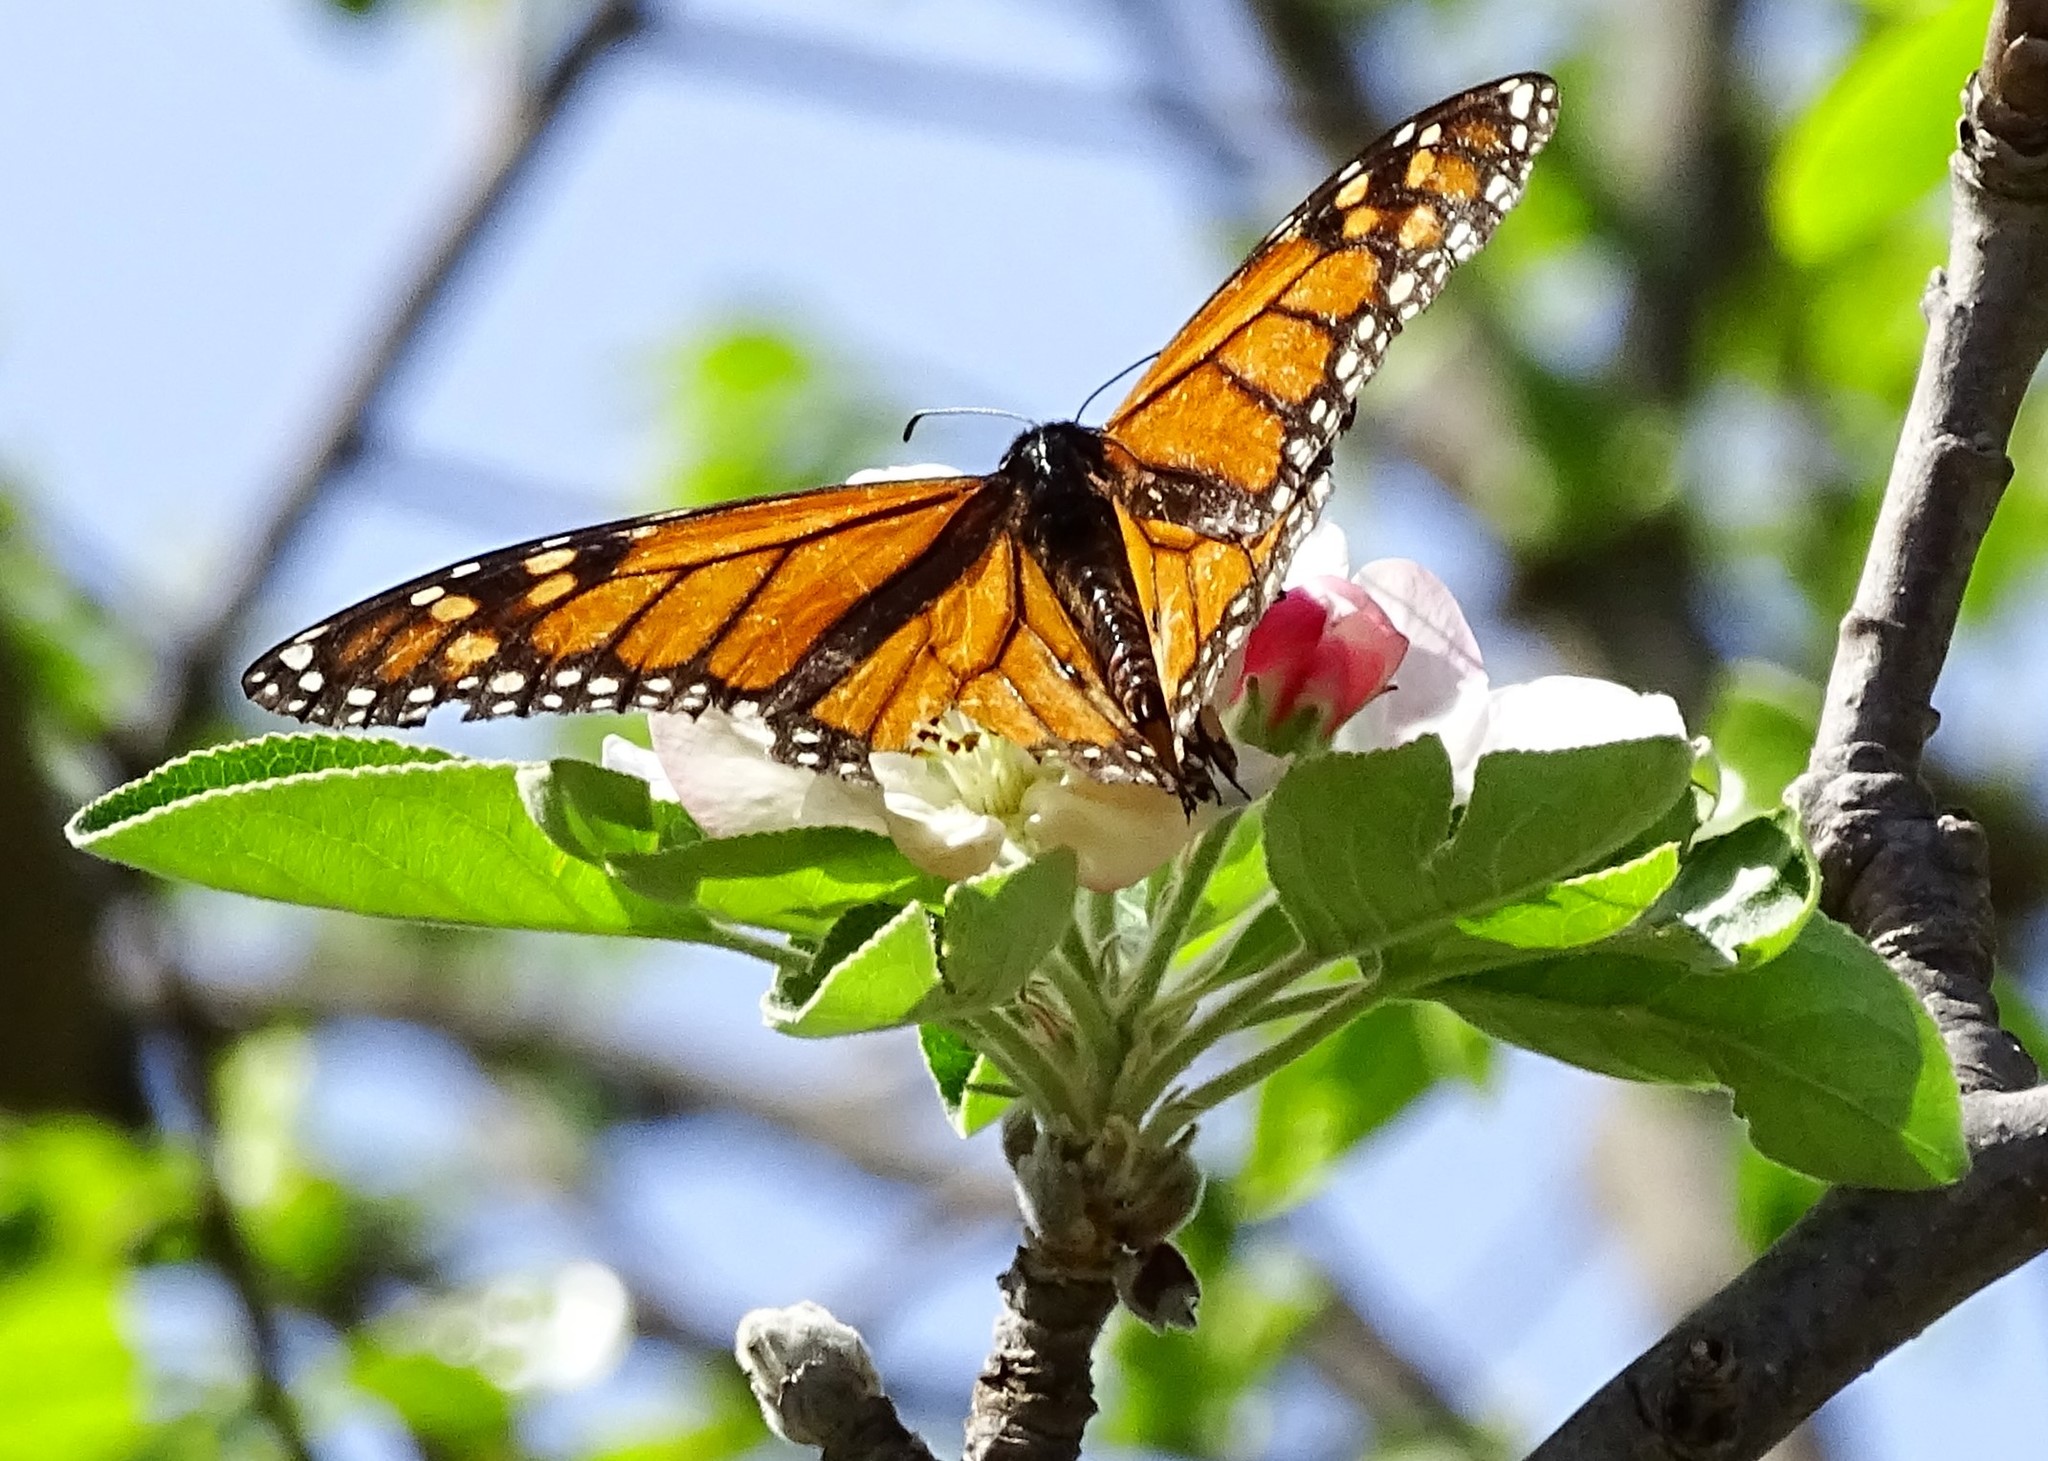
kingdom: Animalia
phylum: Arthropoda
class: Insecta
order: Lepidoptera
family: Nymphalidae
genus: Danaus
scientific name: Danaus plexippus
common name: Monarch
